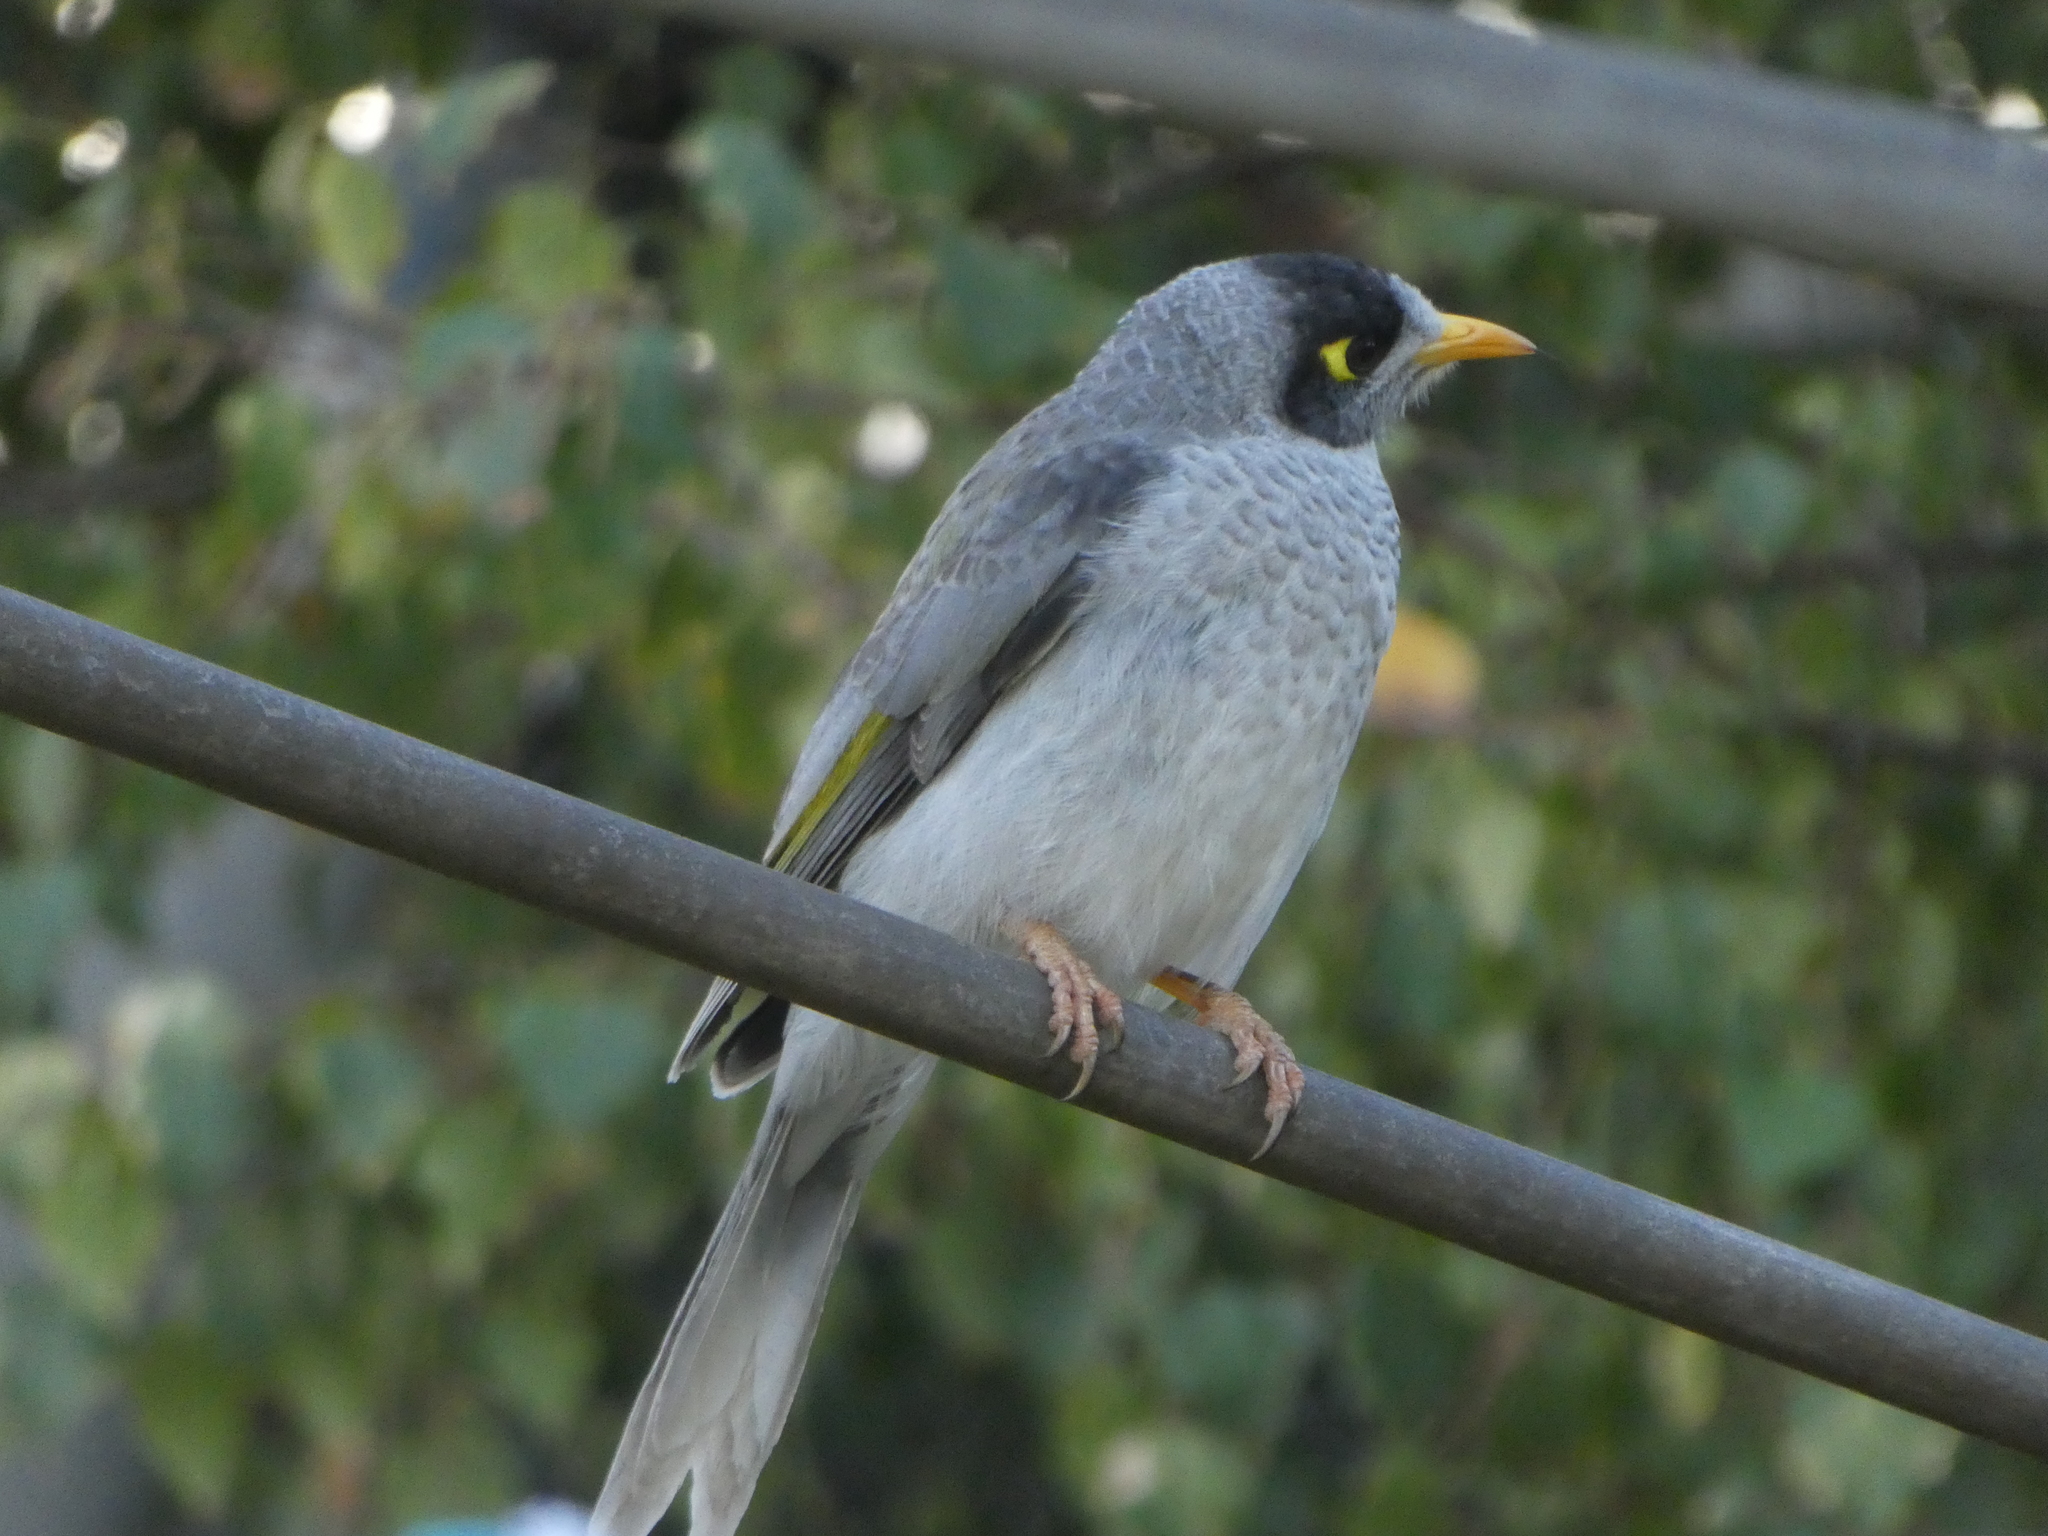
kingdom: Animalia
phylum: Chordata
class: Aves
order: Passeriformes
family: Meliphagidae
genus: Manorina
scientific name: Manorina melanocephala
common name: Noisy miner
